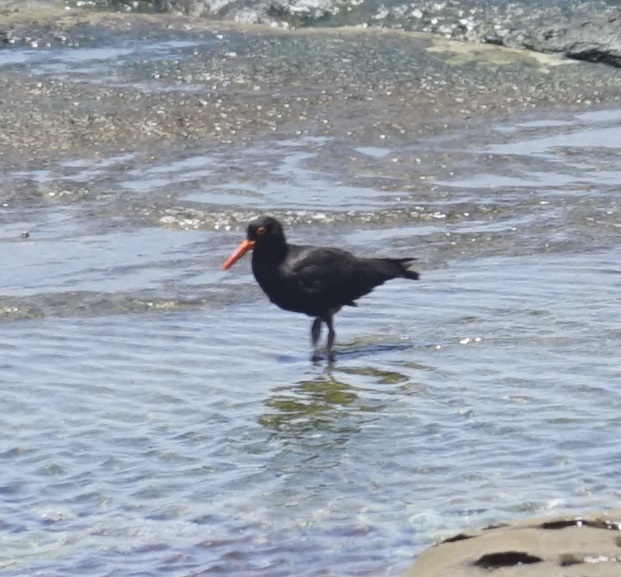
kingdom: Animalia
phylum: Chordata
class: Aves
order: Charadriiformes
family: Haematopodidae
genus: Haematopus
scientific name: Haematopus fuliginosus
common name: Sooty oystercatcher
